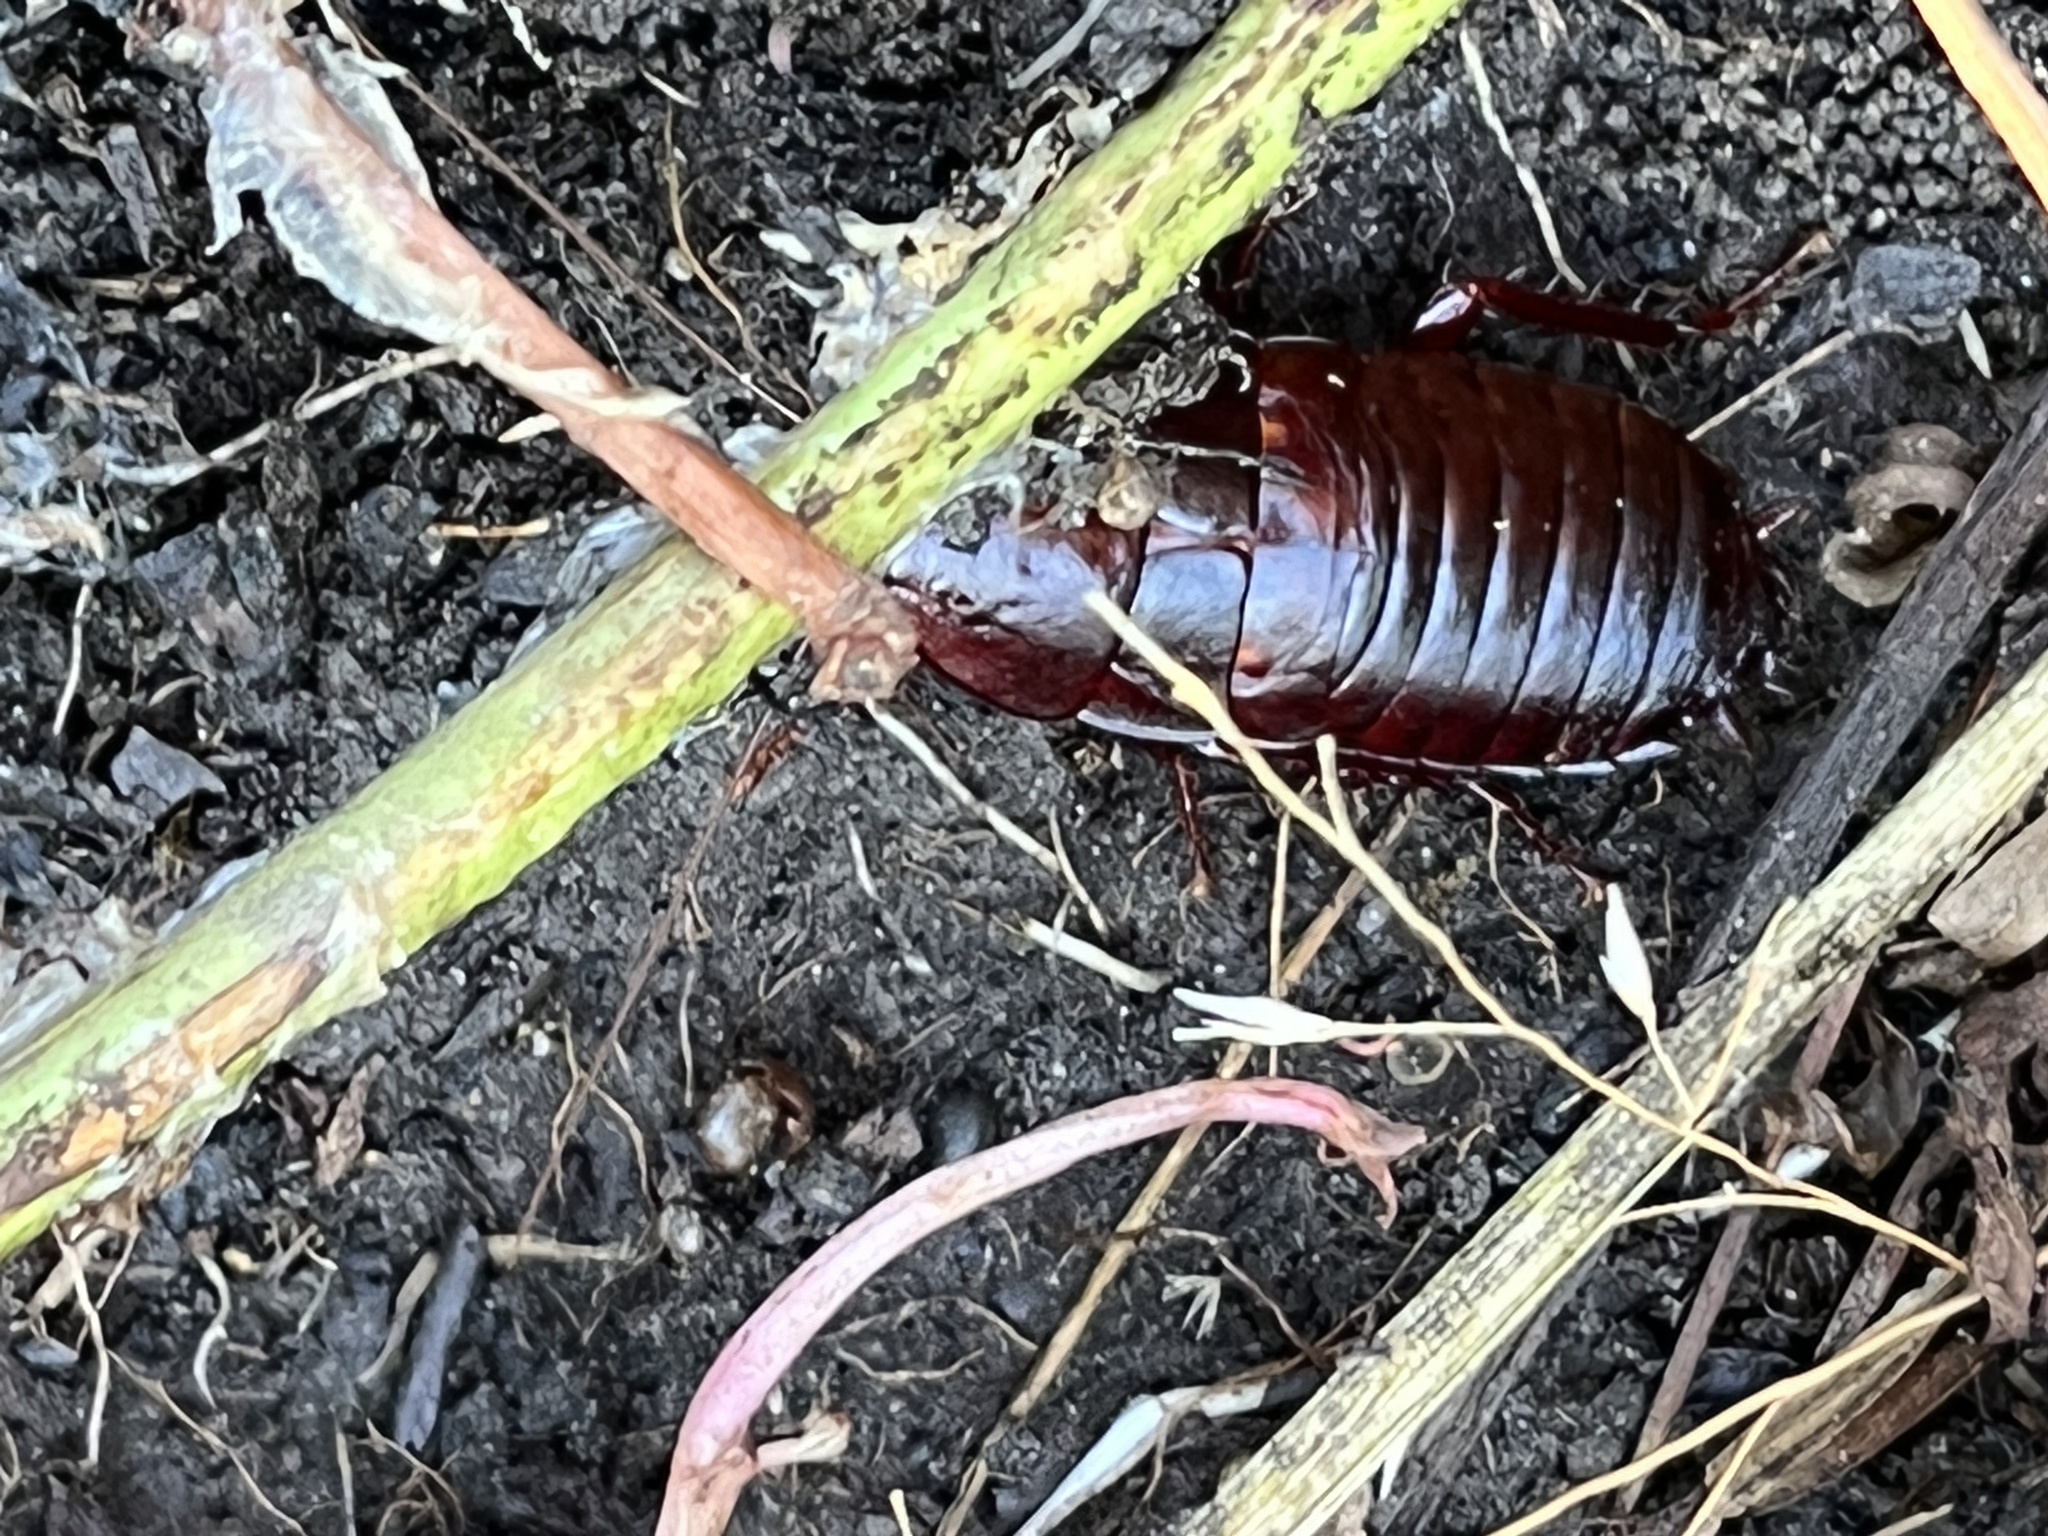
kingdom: Animalia
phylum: Arthropoda
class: Insecta
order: Blattodea
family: Blattidae
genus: Eurycotis
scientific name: Eurycotis floridana
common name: Florida cockroach
